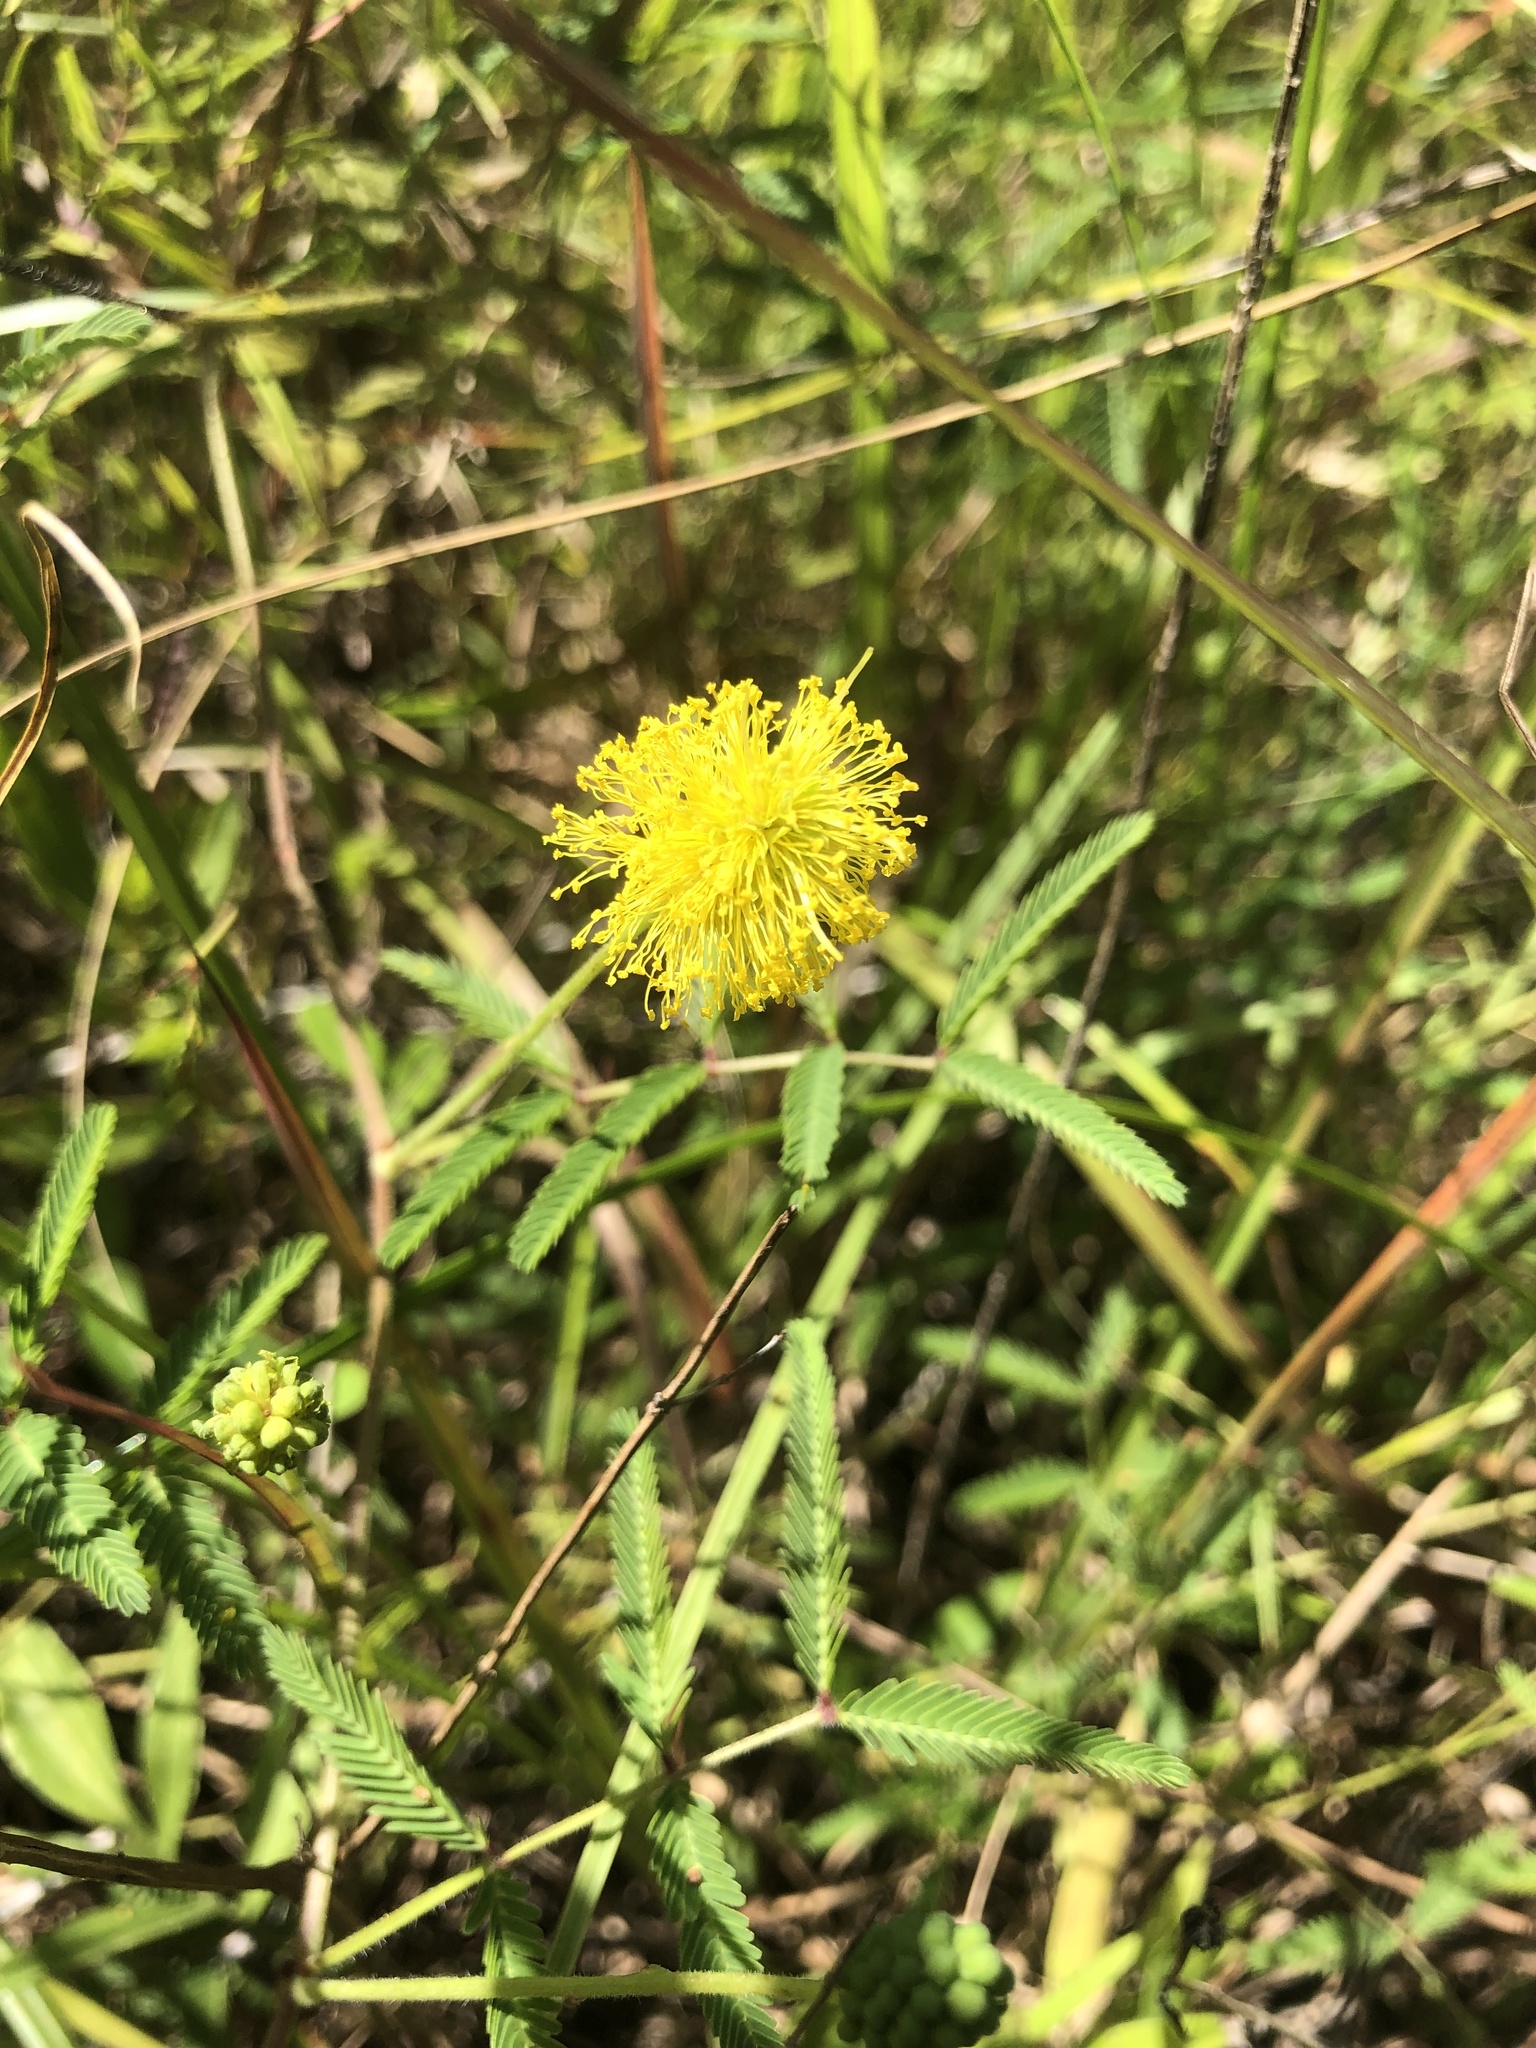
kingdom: Plantae
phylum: Tracheophyta
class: Magnoliopsida
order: Fabales
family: Fabaceae
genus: Neptunia
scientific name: Neptunia lutea
